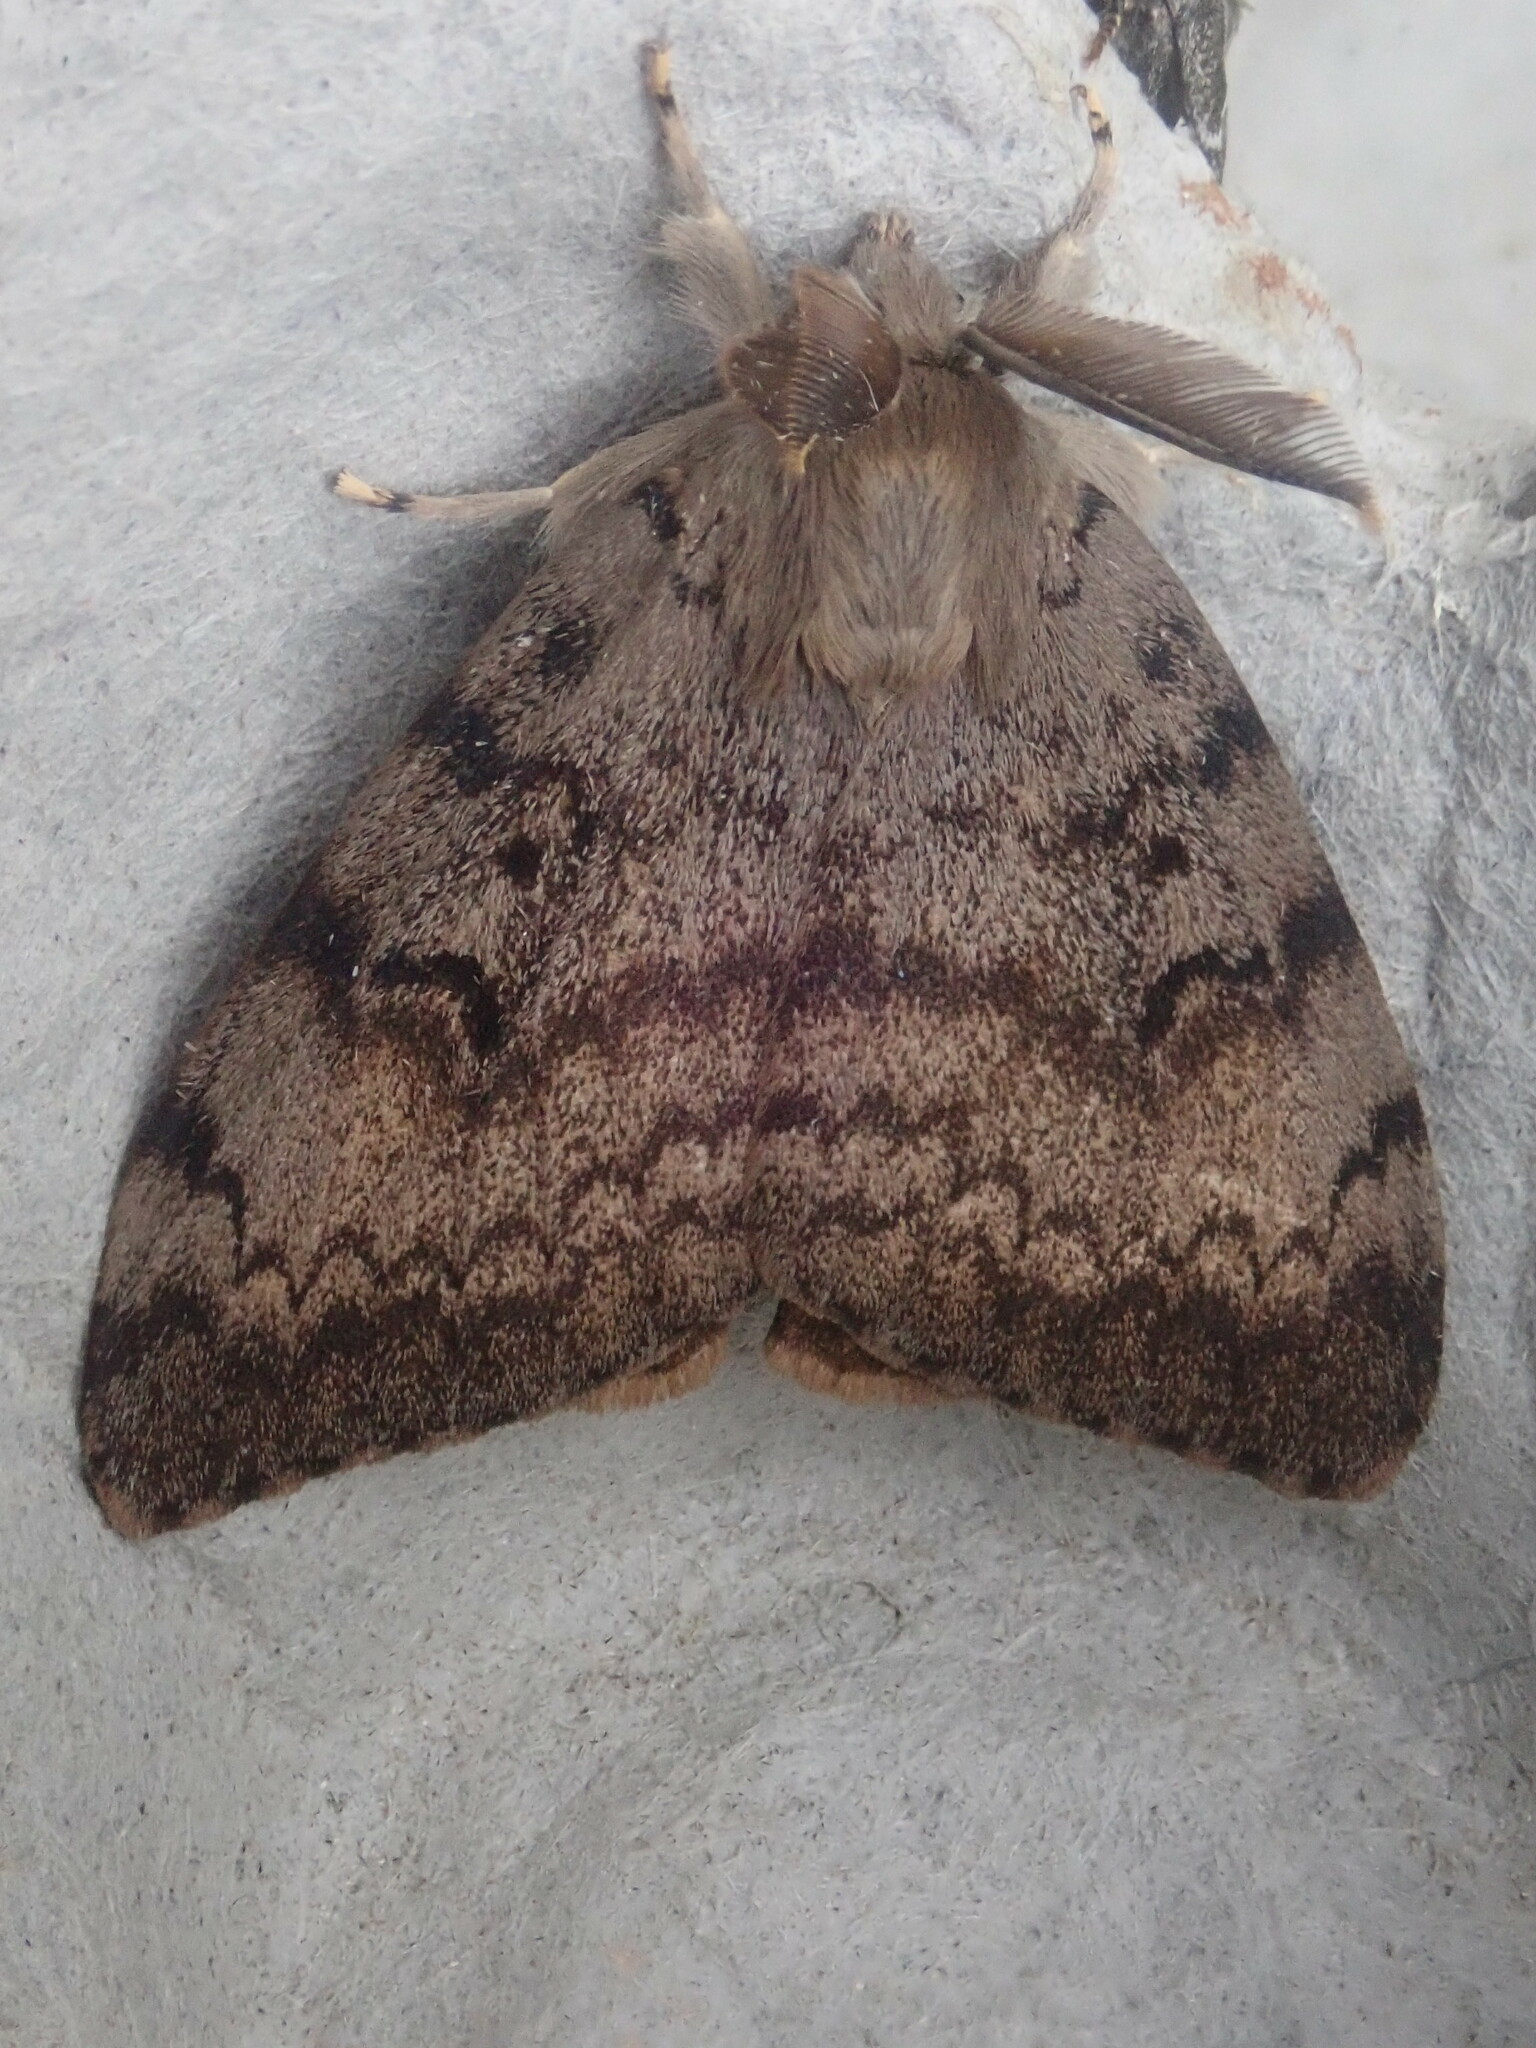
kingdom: Animalia
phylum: Arthropoda
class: Insecta
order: Lepidoptera
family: Erebidae
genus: Lymantria
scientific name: Lymantria dispar
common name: Gypsy moth
